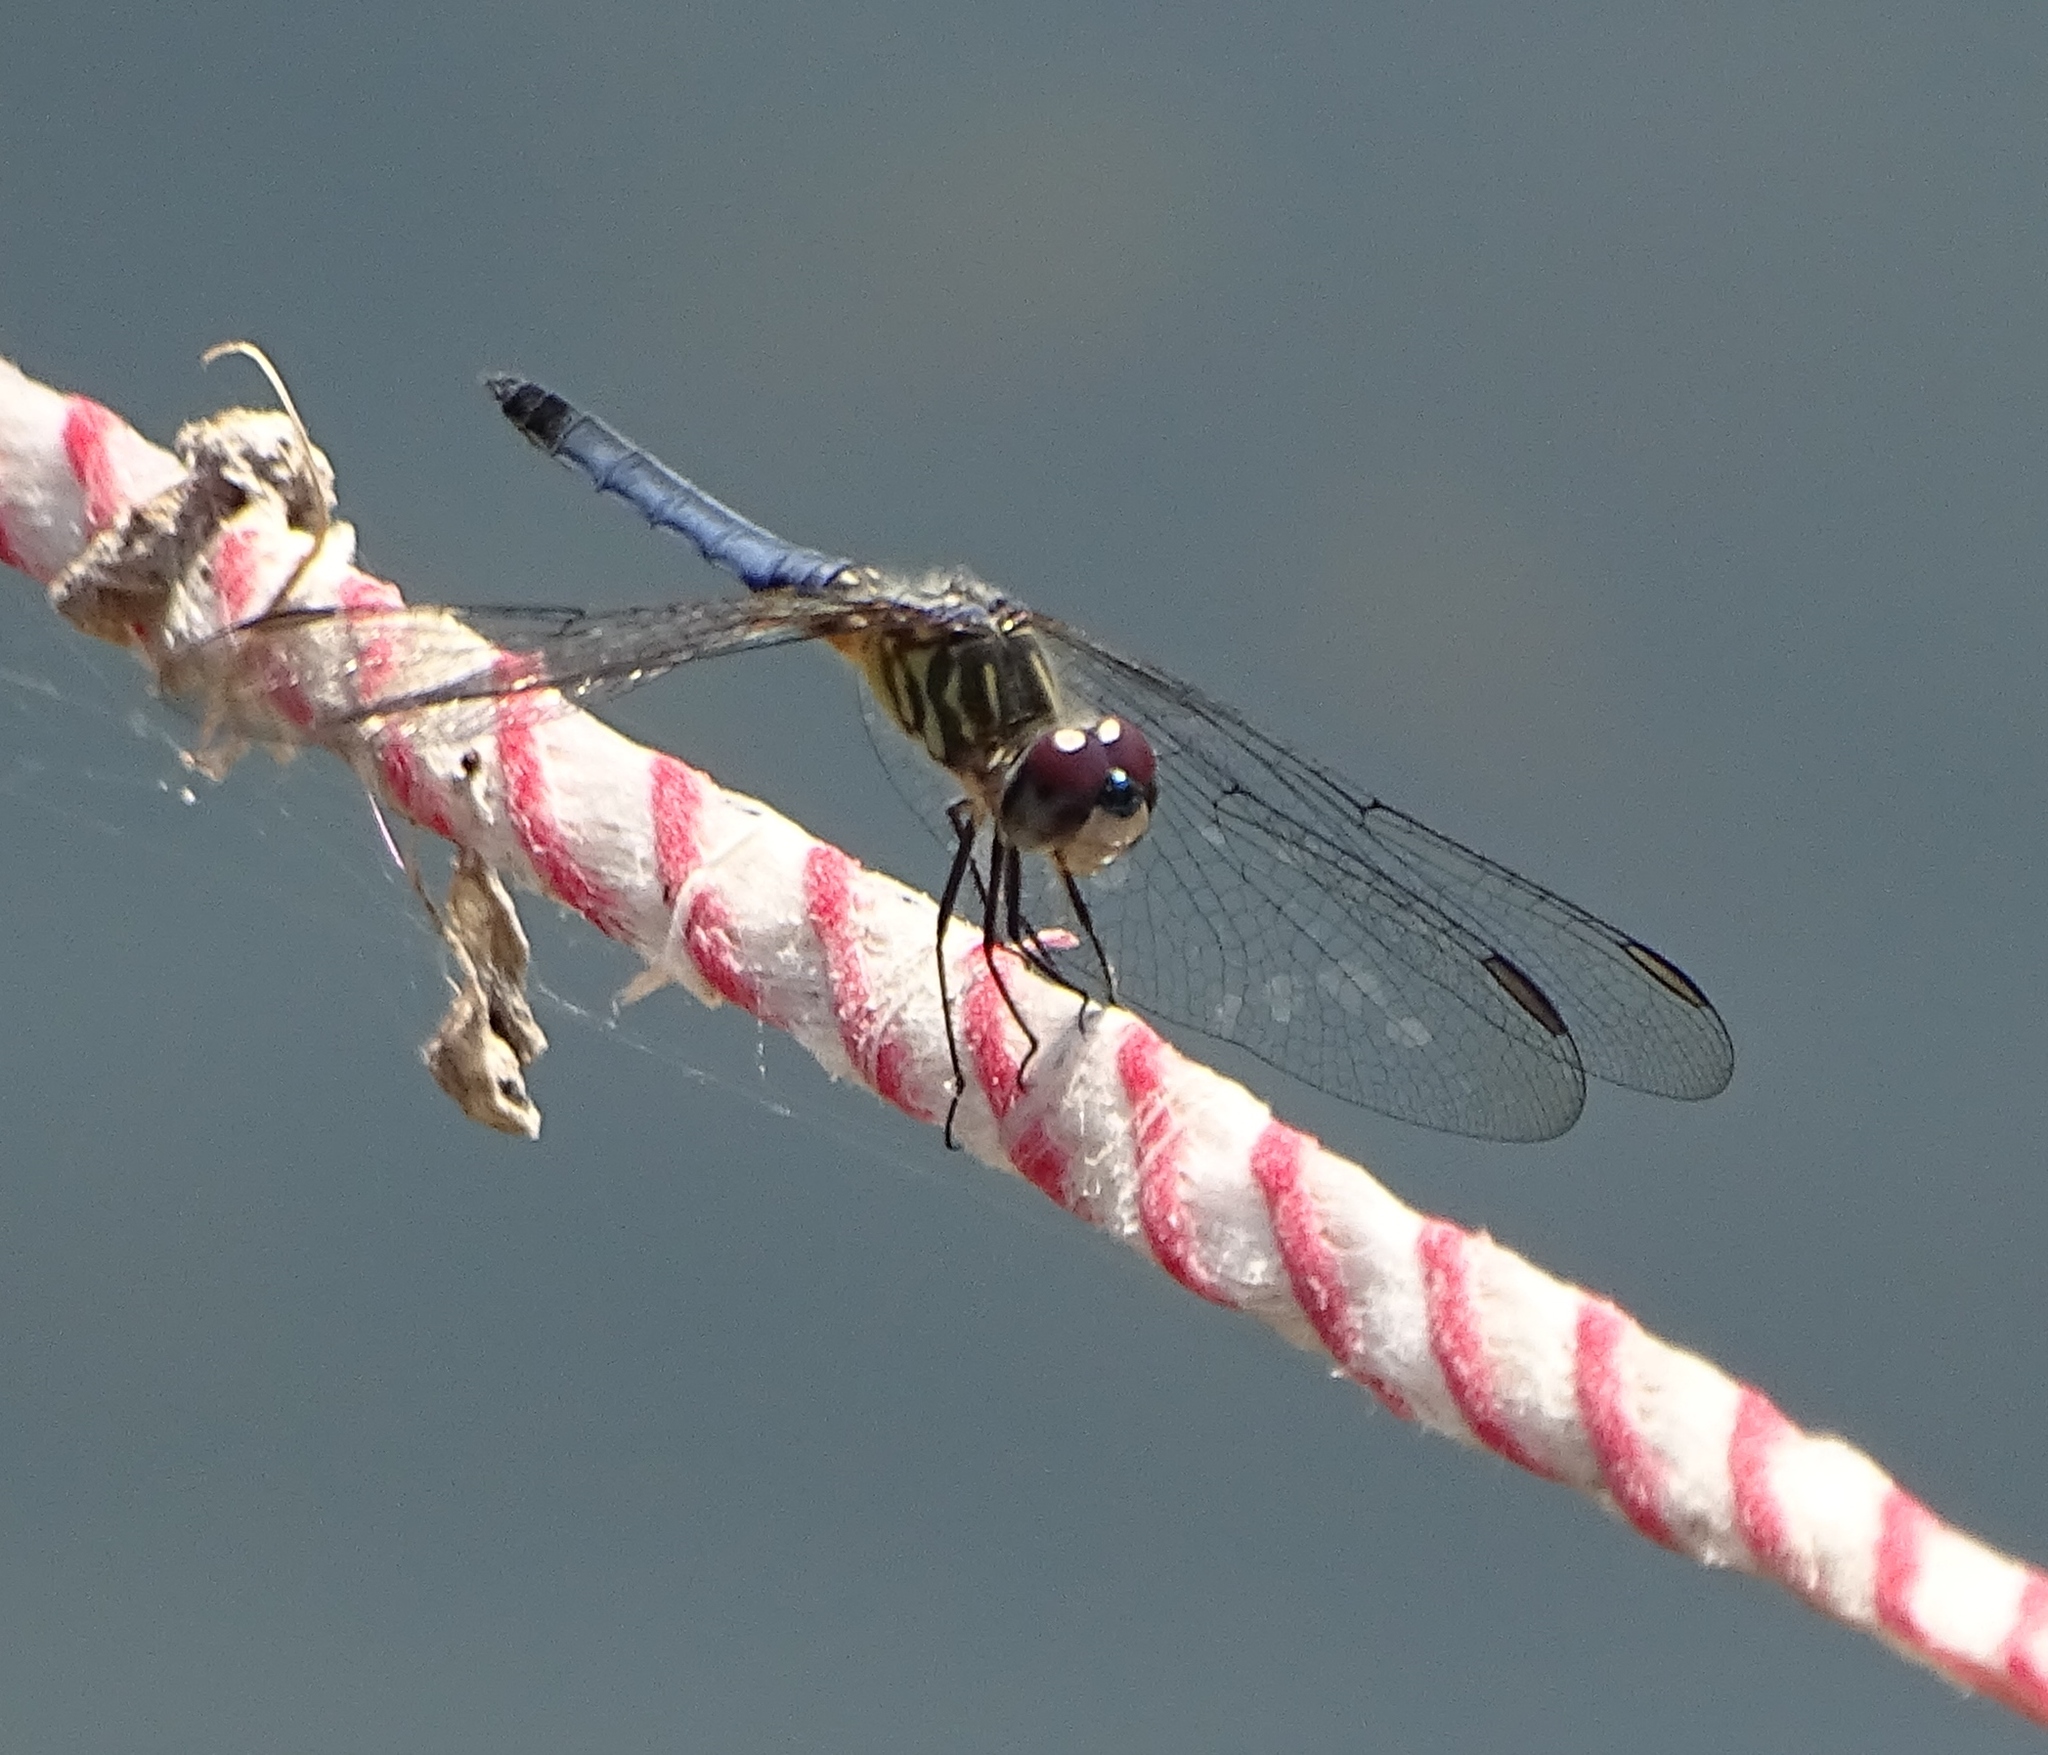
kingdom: Animalia
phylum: Arthropoda
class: Insecta
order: Odonata
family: Libellulidae
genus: Pachydiplax
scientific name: Pachydiplax longipennis
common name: Blue dasher
